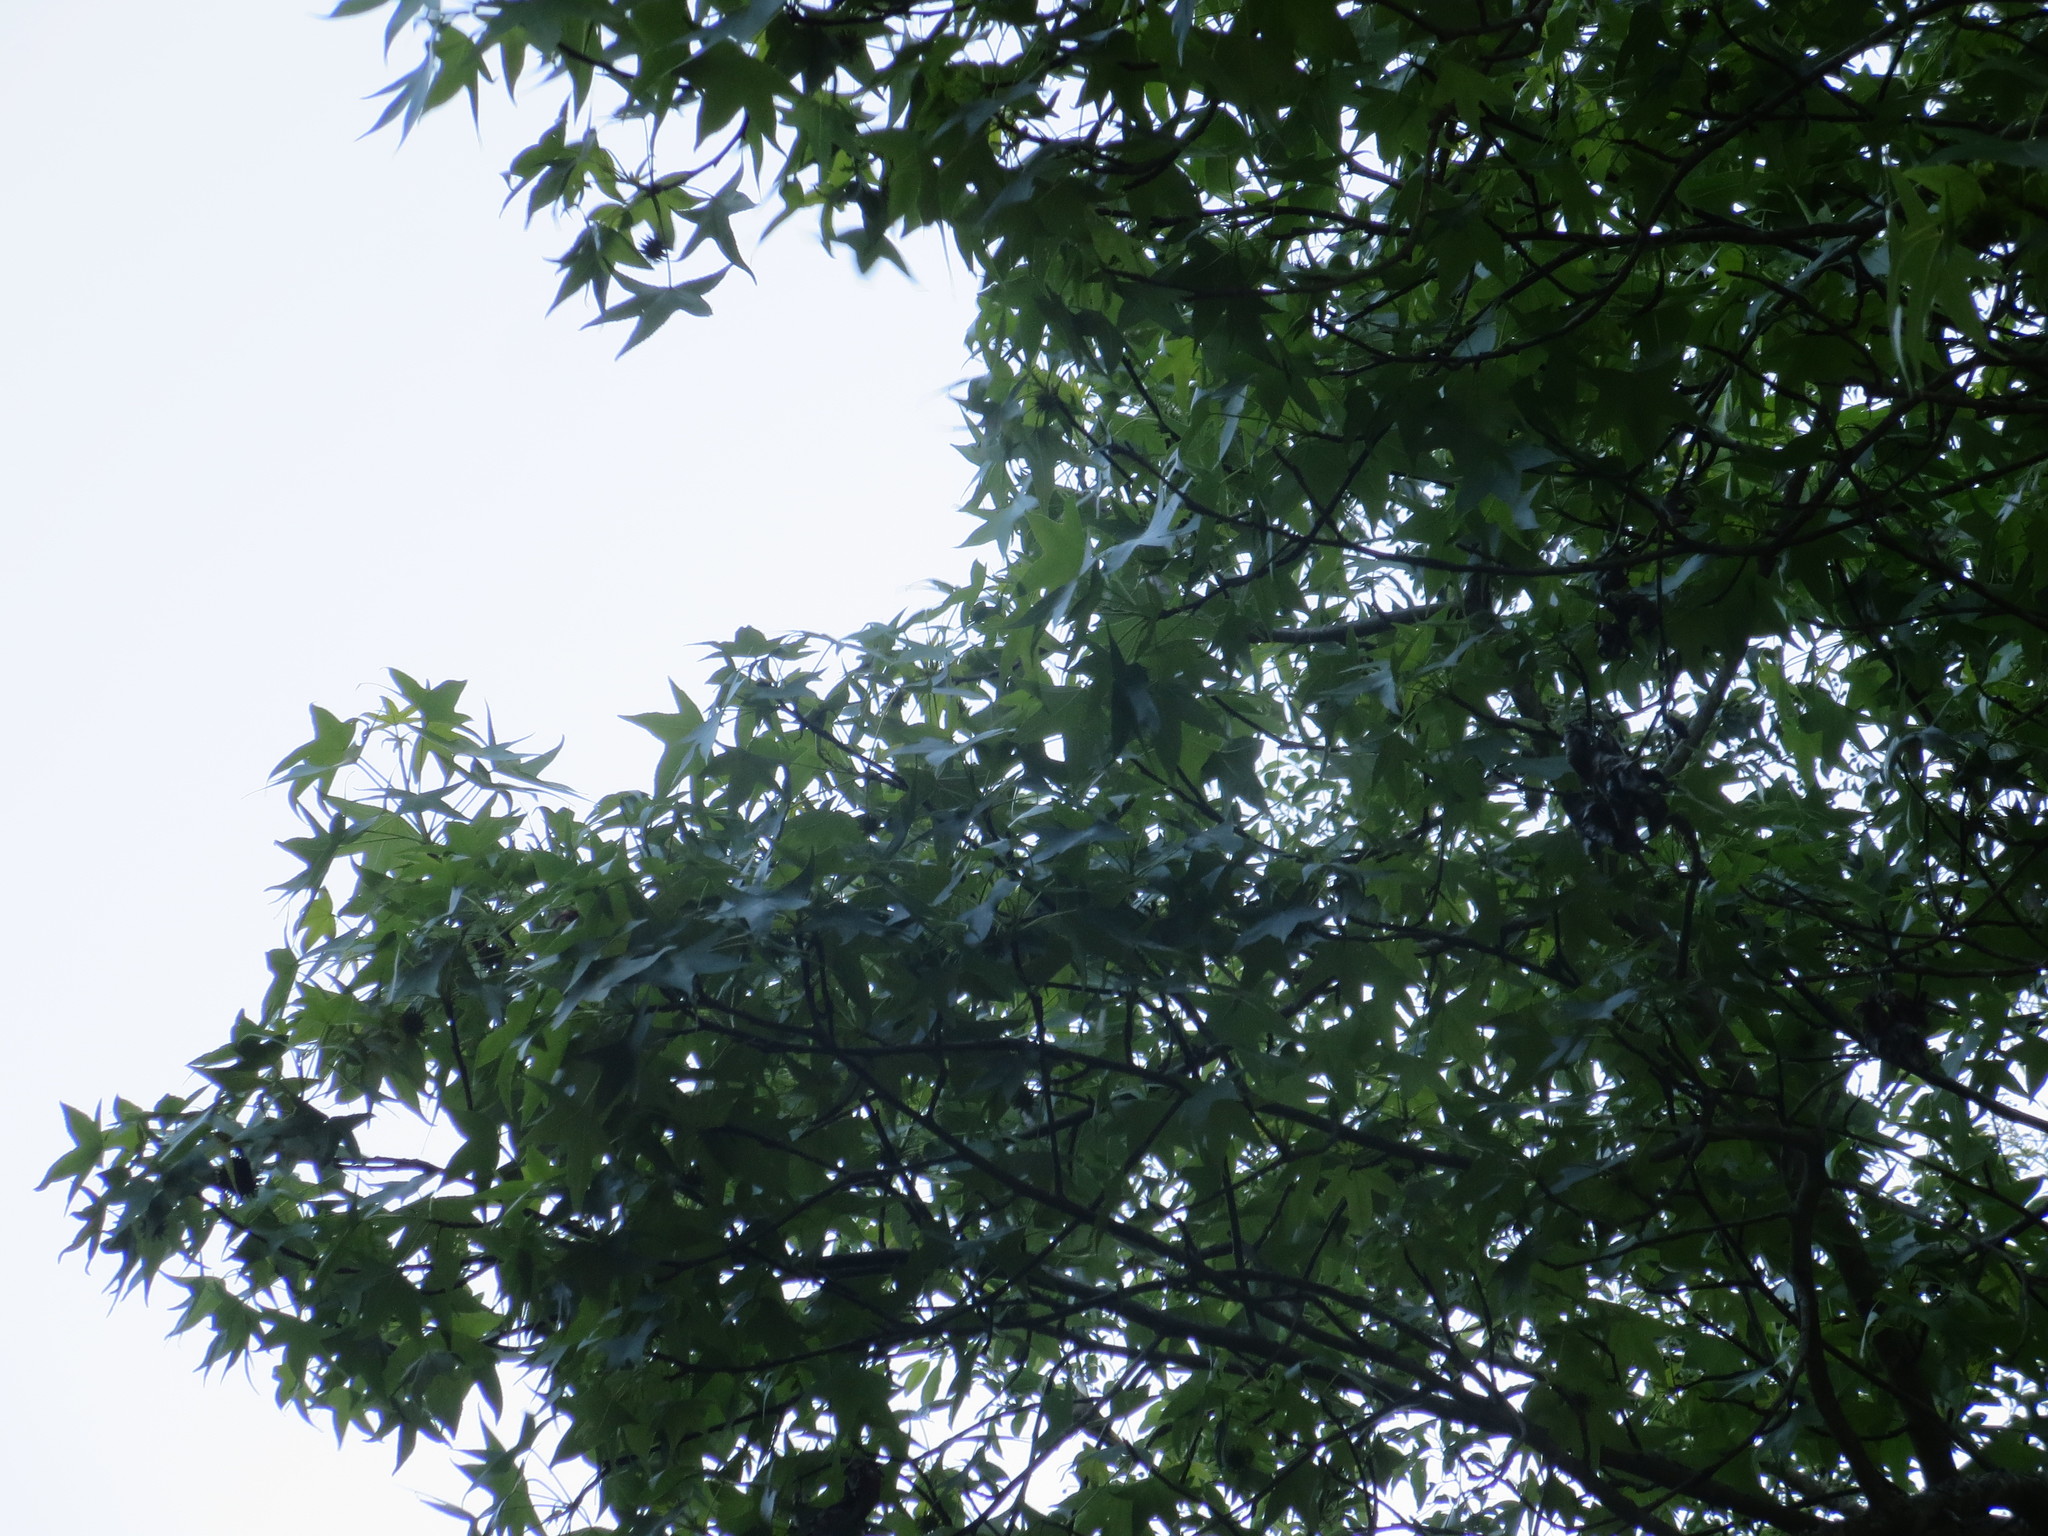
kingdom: Plantae
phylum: Tracheophyta
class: Magnoliopsida
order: Saxifragales
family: Altingiaceae
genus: Liquidambar
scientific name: Liquidambar styraciflua
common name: Sweet gum
